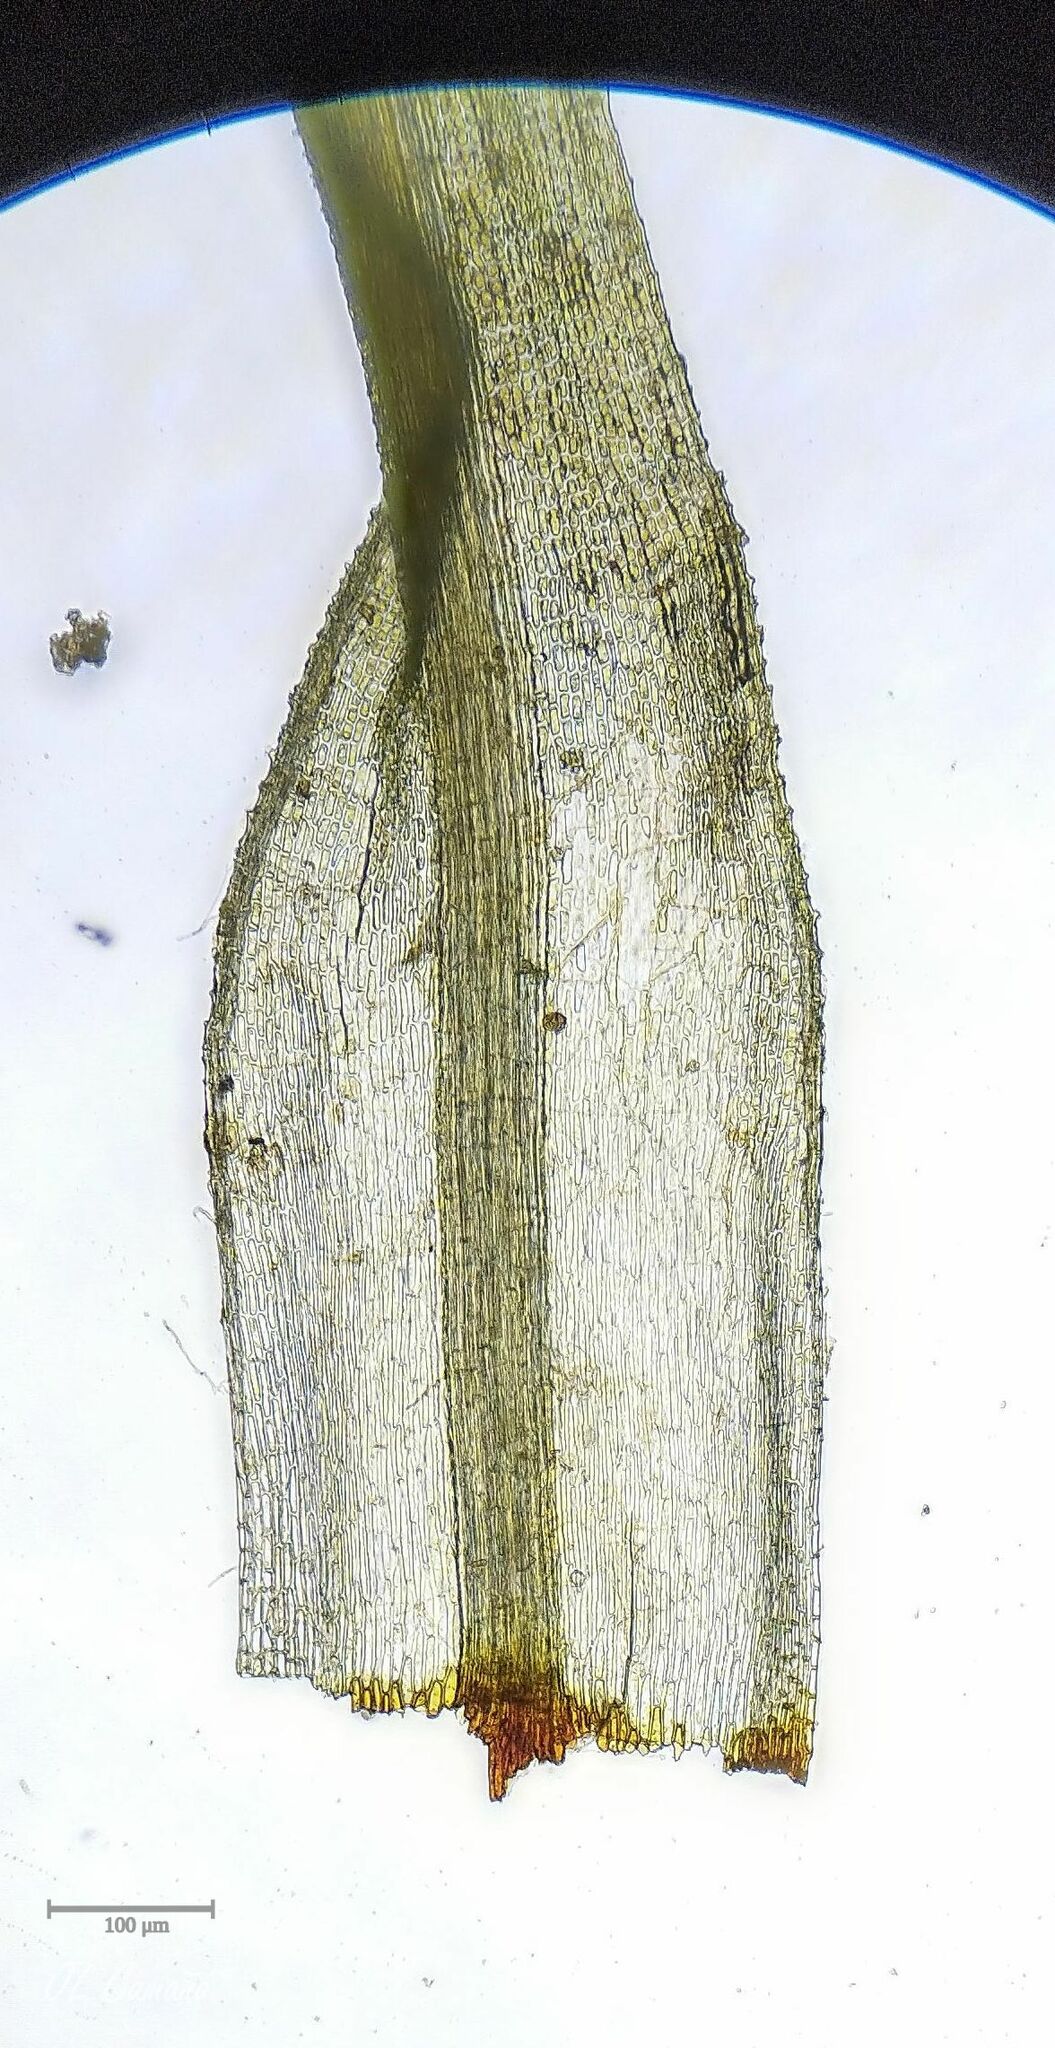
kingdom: Plantae
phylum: Bryophyta
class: Bryopsida
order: Bartramiales
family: Bartramiaceae
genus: Bartramia
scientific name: Bartramia ithyphylla
